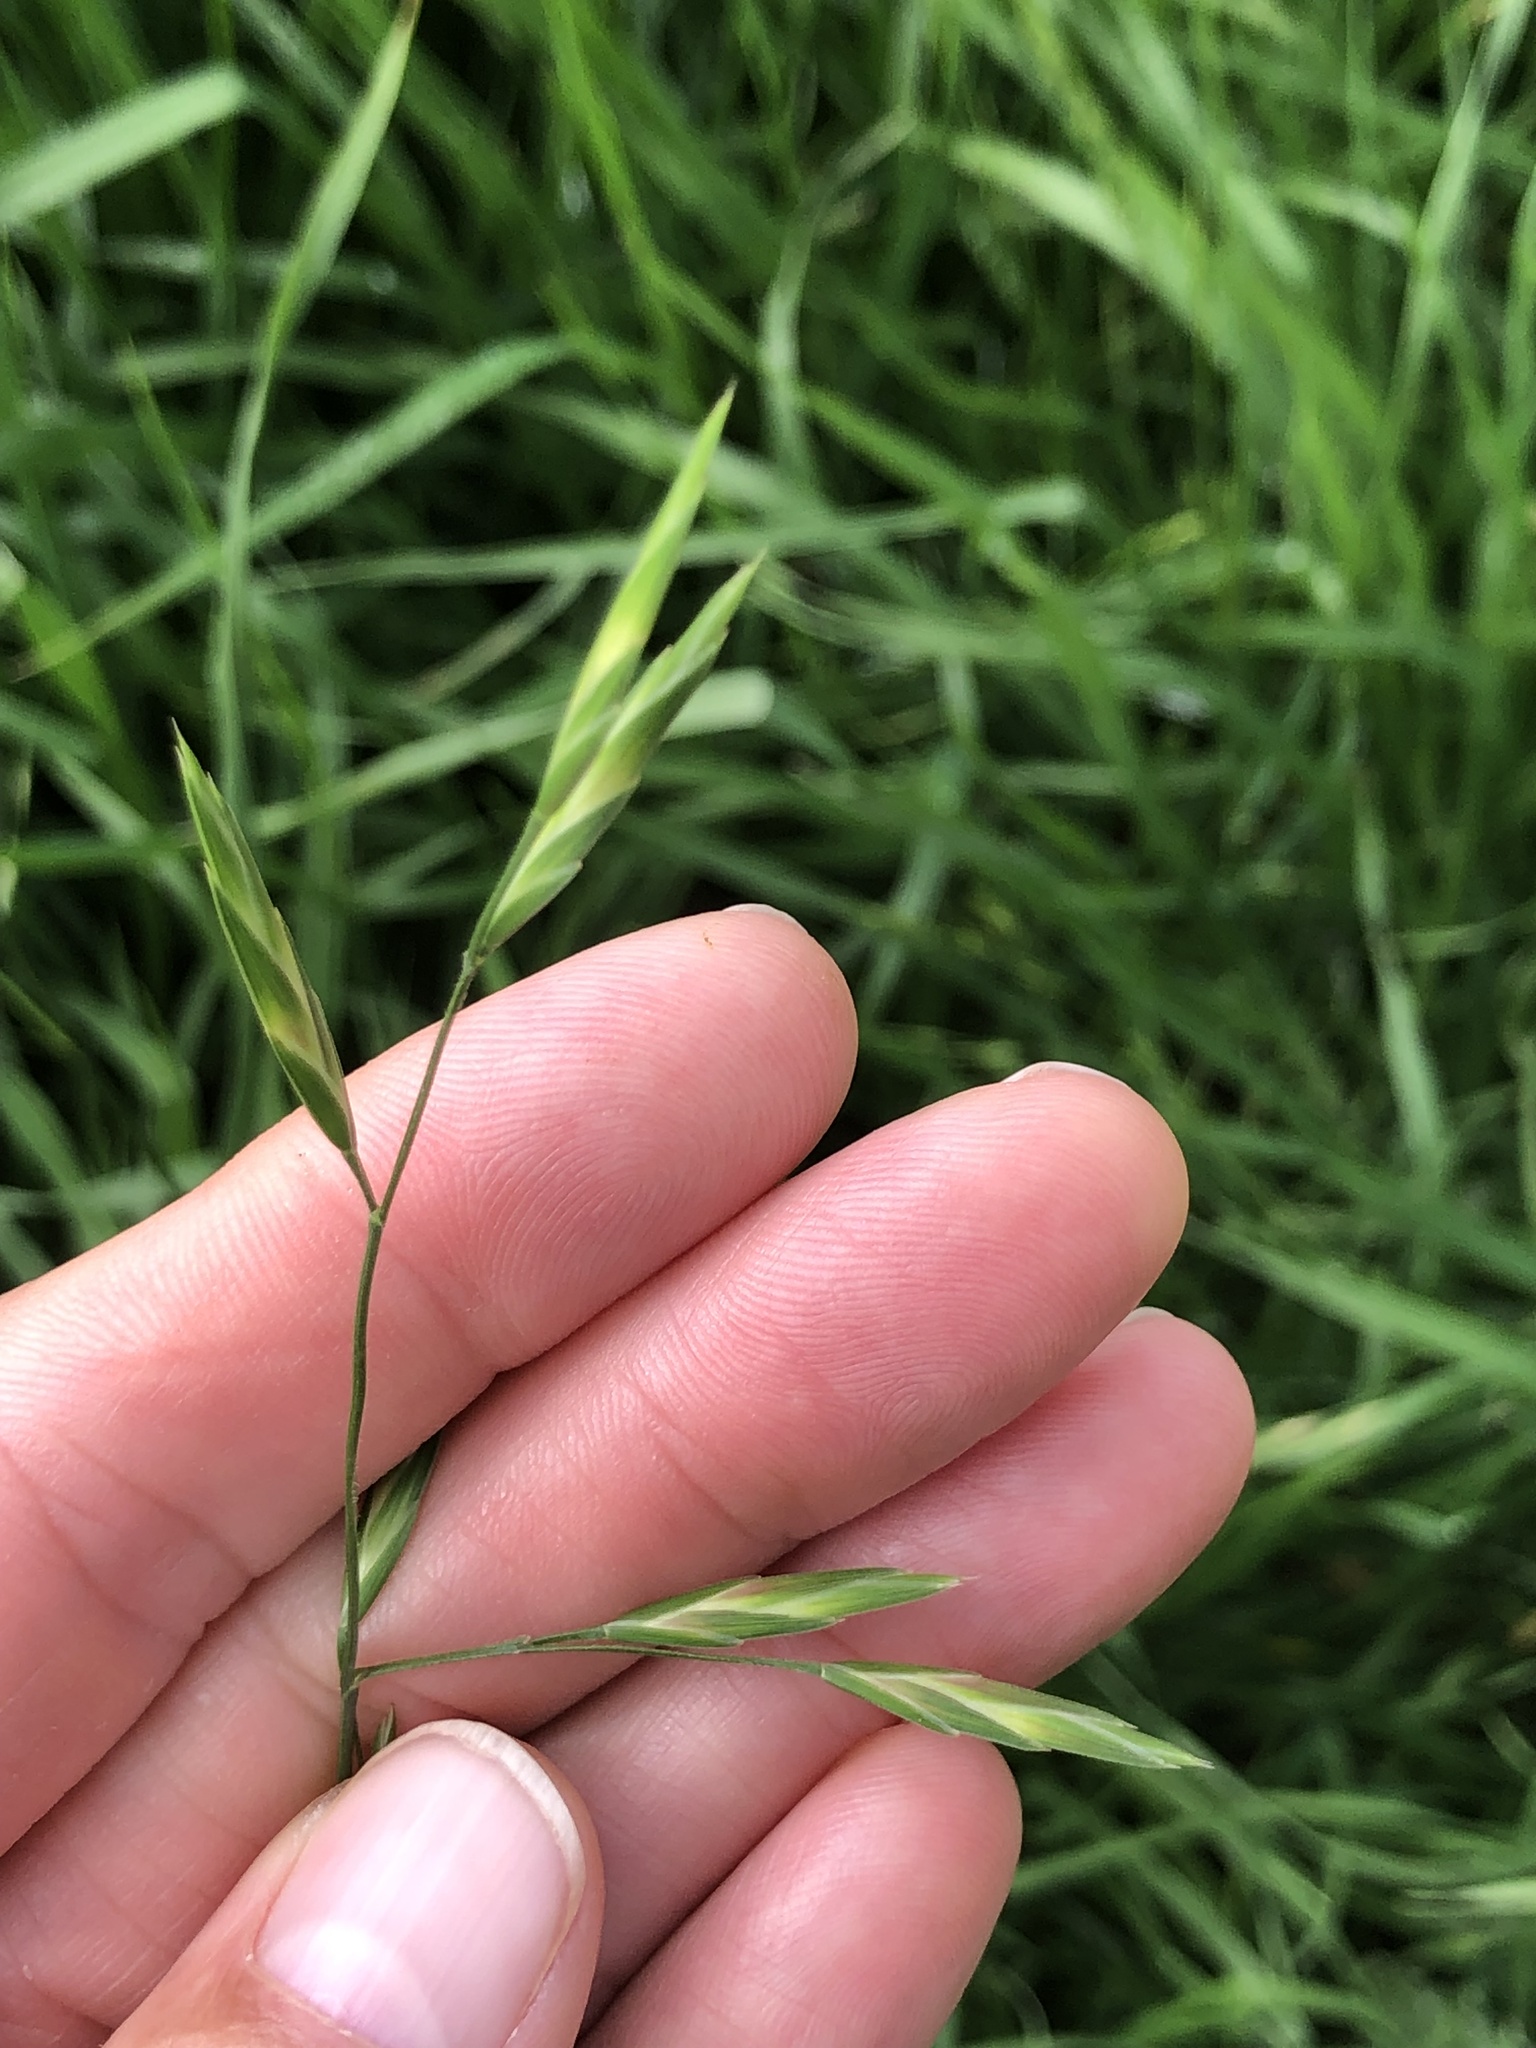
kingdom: Plantae
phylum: Tracheophyta
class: Liliopsida
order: Poales
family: Poaceae
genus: Bromus
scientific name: Bromus catharticus
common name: Rescuegrass
